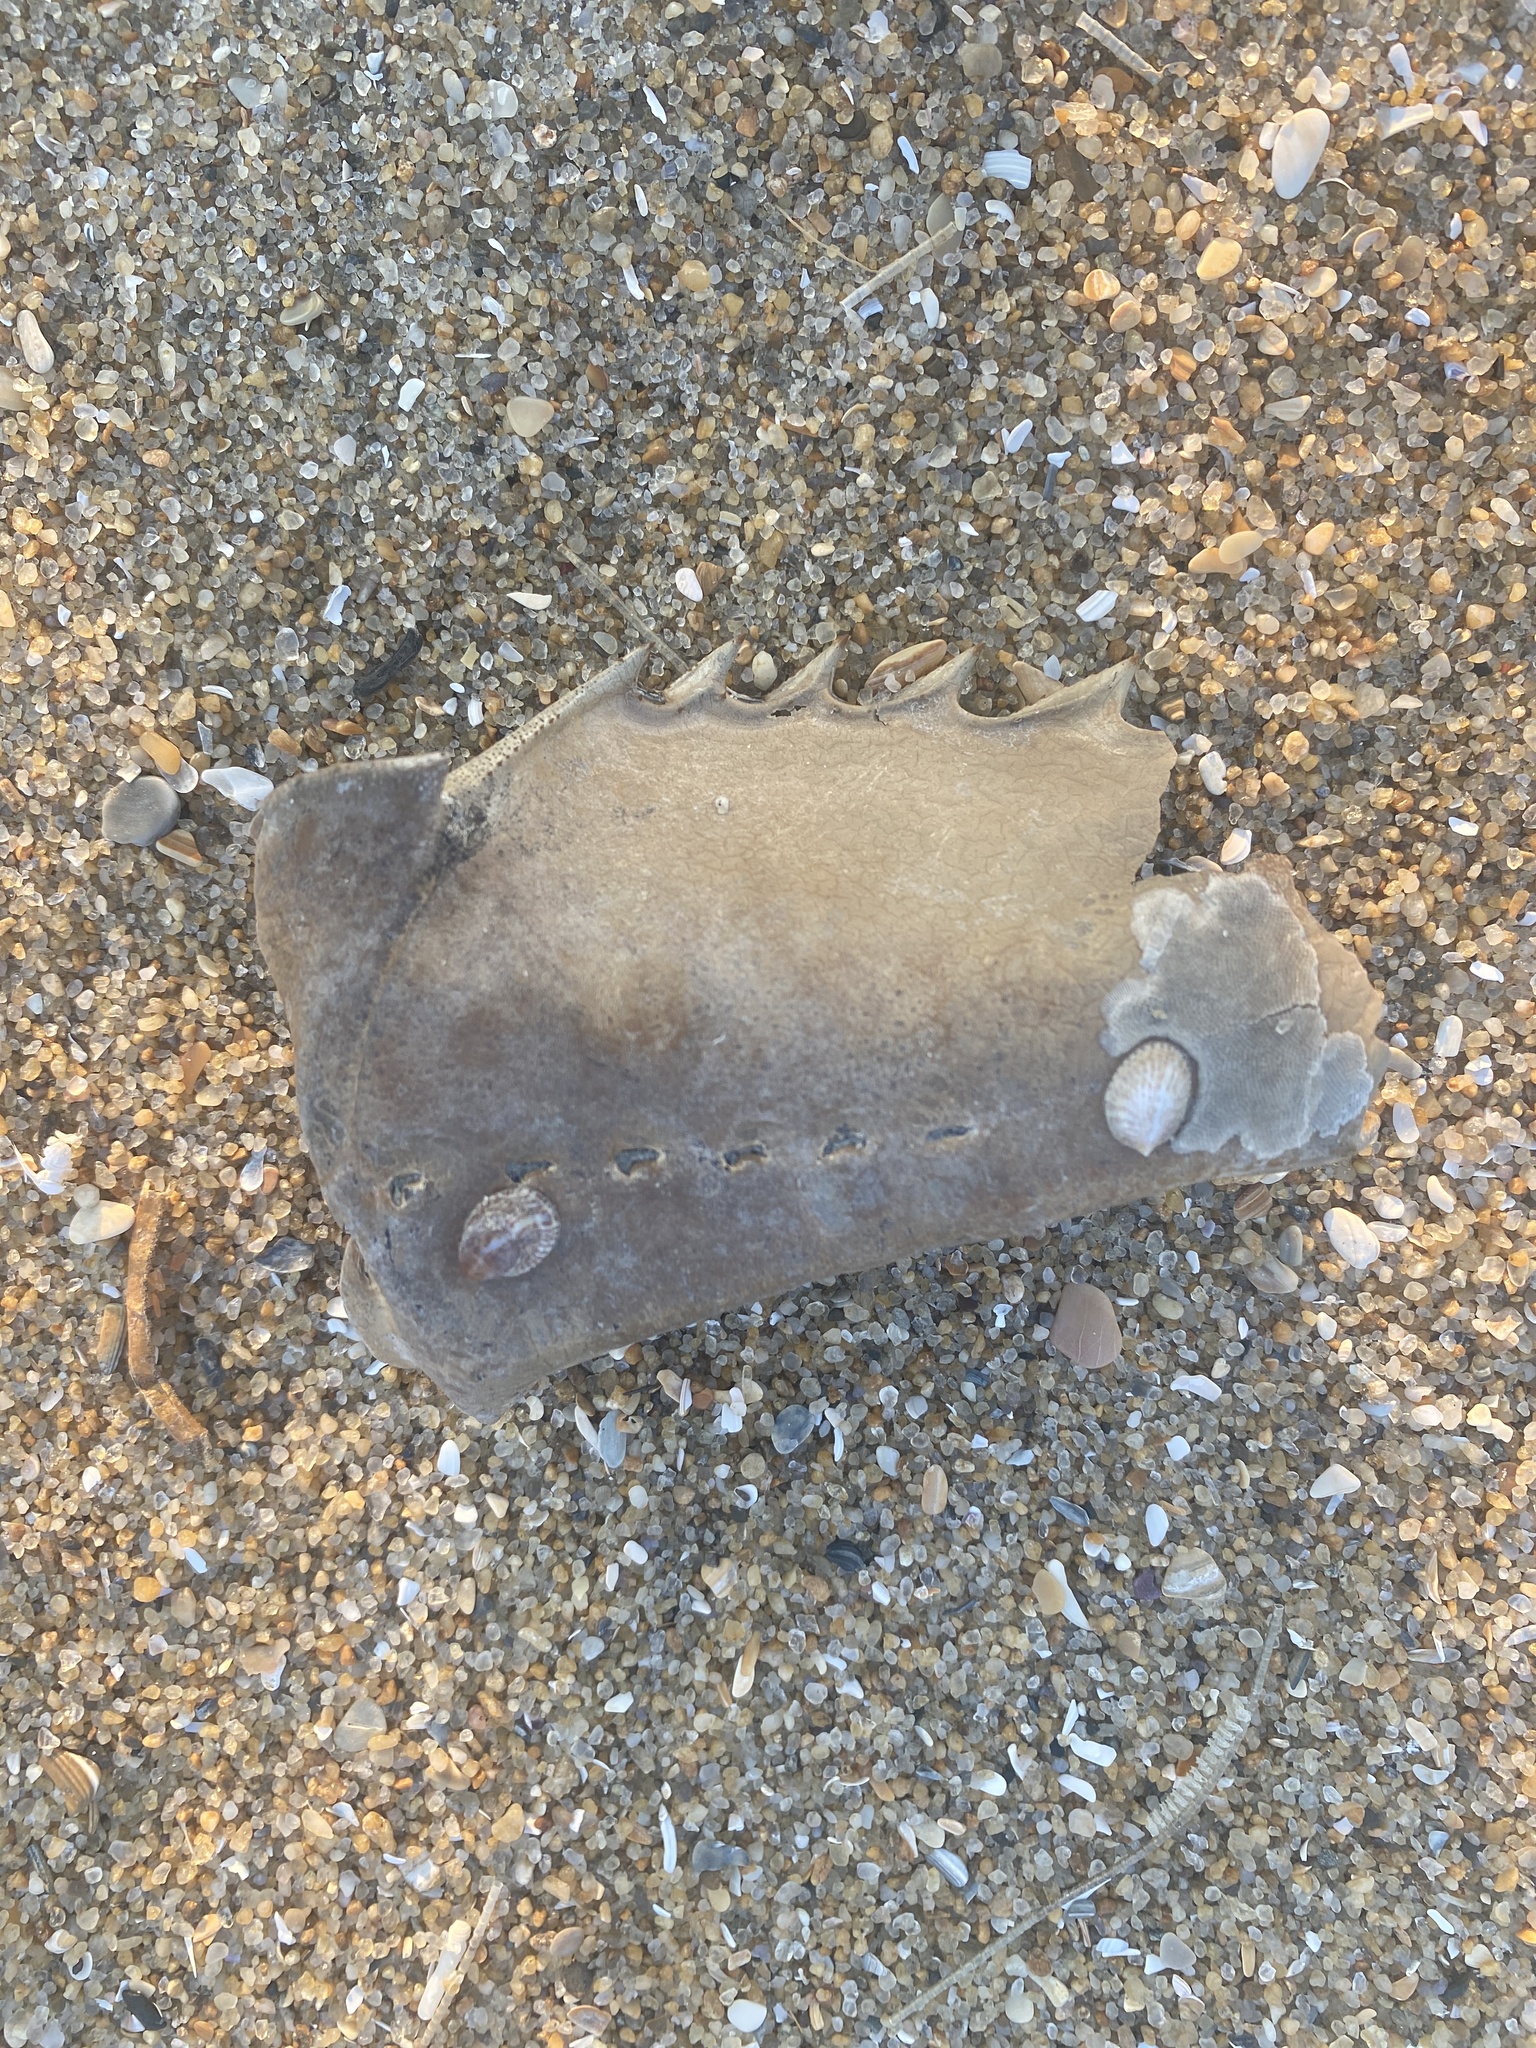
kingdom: Animalia
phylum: Arthropoda
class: Merostomata
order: Xiphosurida
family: Limulidae
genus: Limulus
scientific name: Limulus polyphemus
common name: Horseshoe crab
